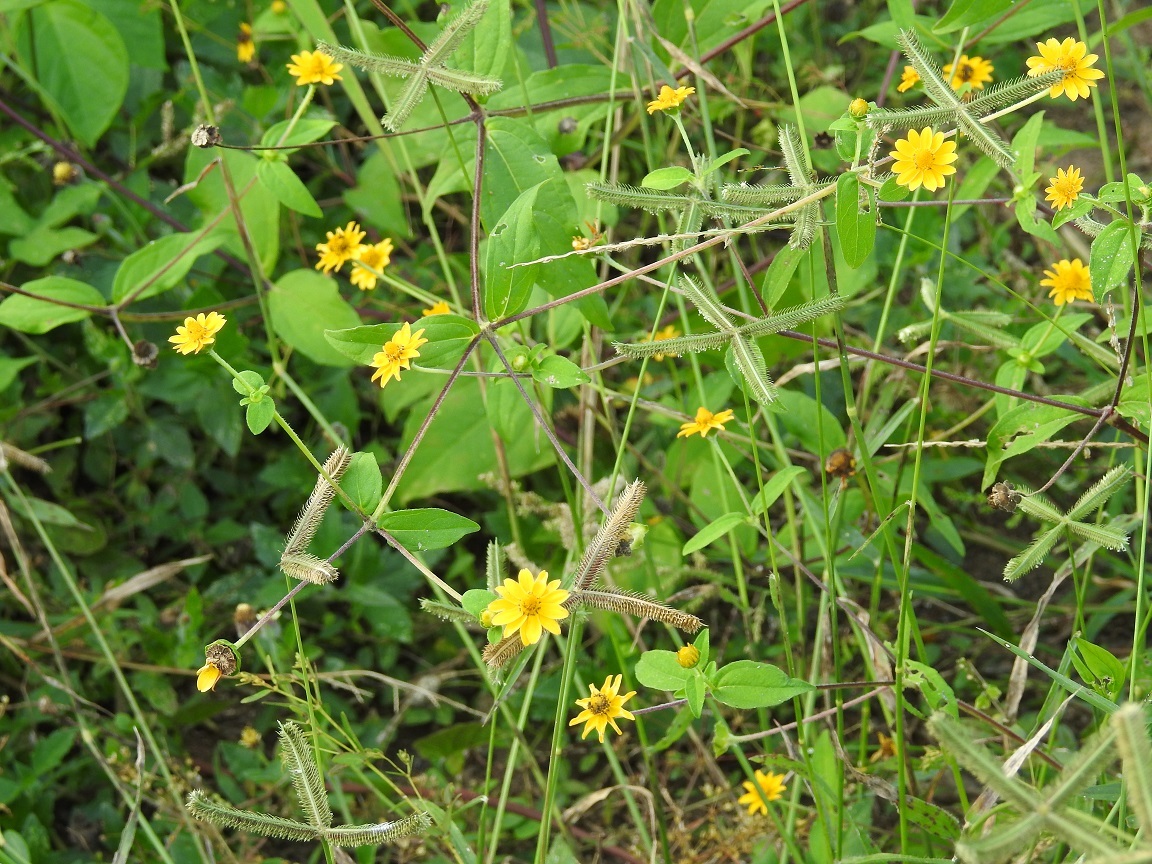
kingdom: Plantae
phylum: Tracheophyta
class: Magnoliopsida
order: Asterales
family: Asteraceae
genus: Melampodium
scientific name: Melampodium divaricatum
